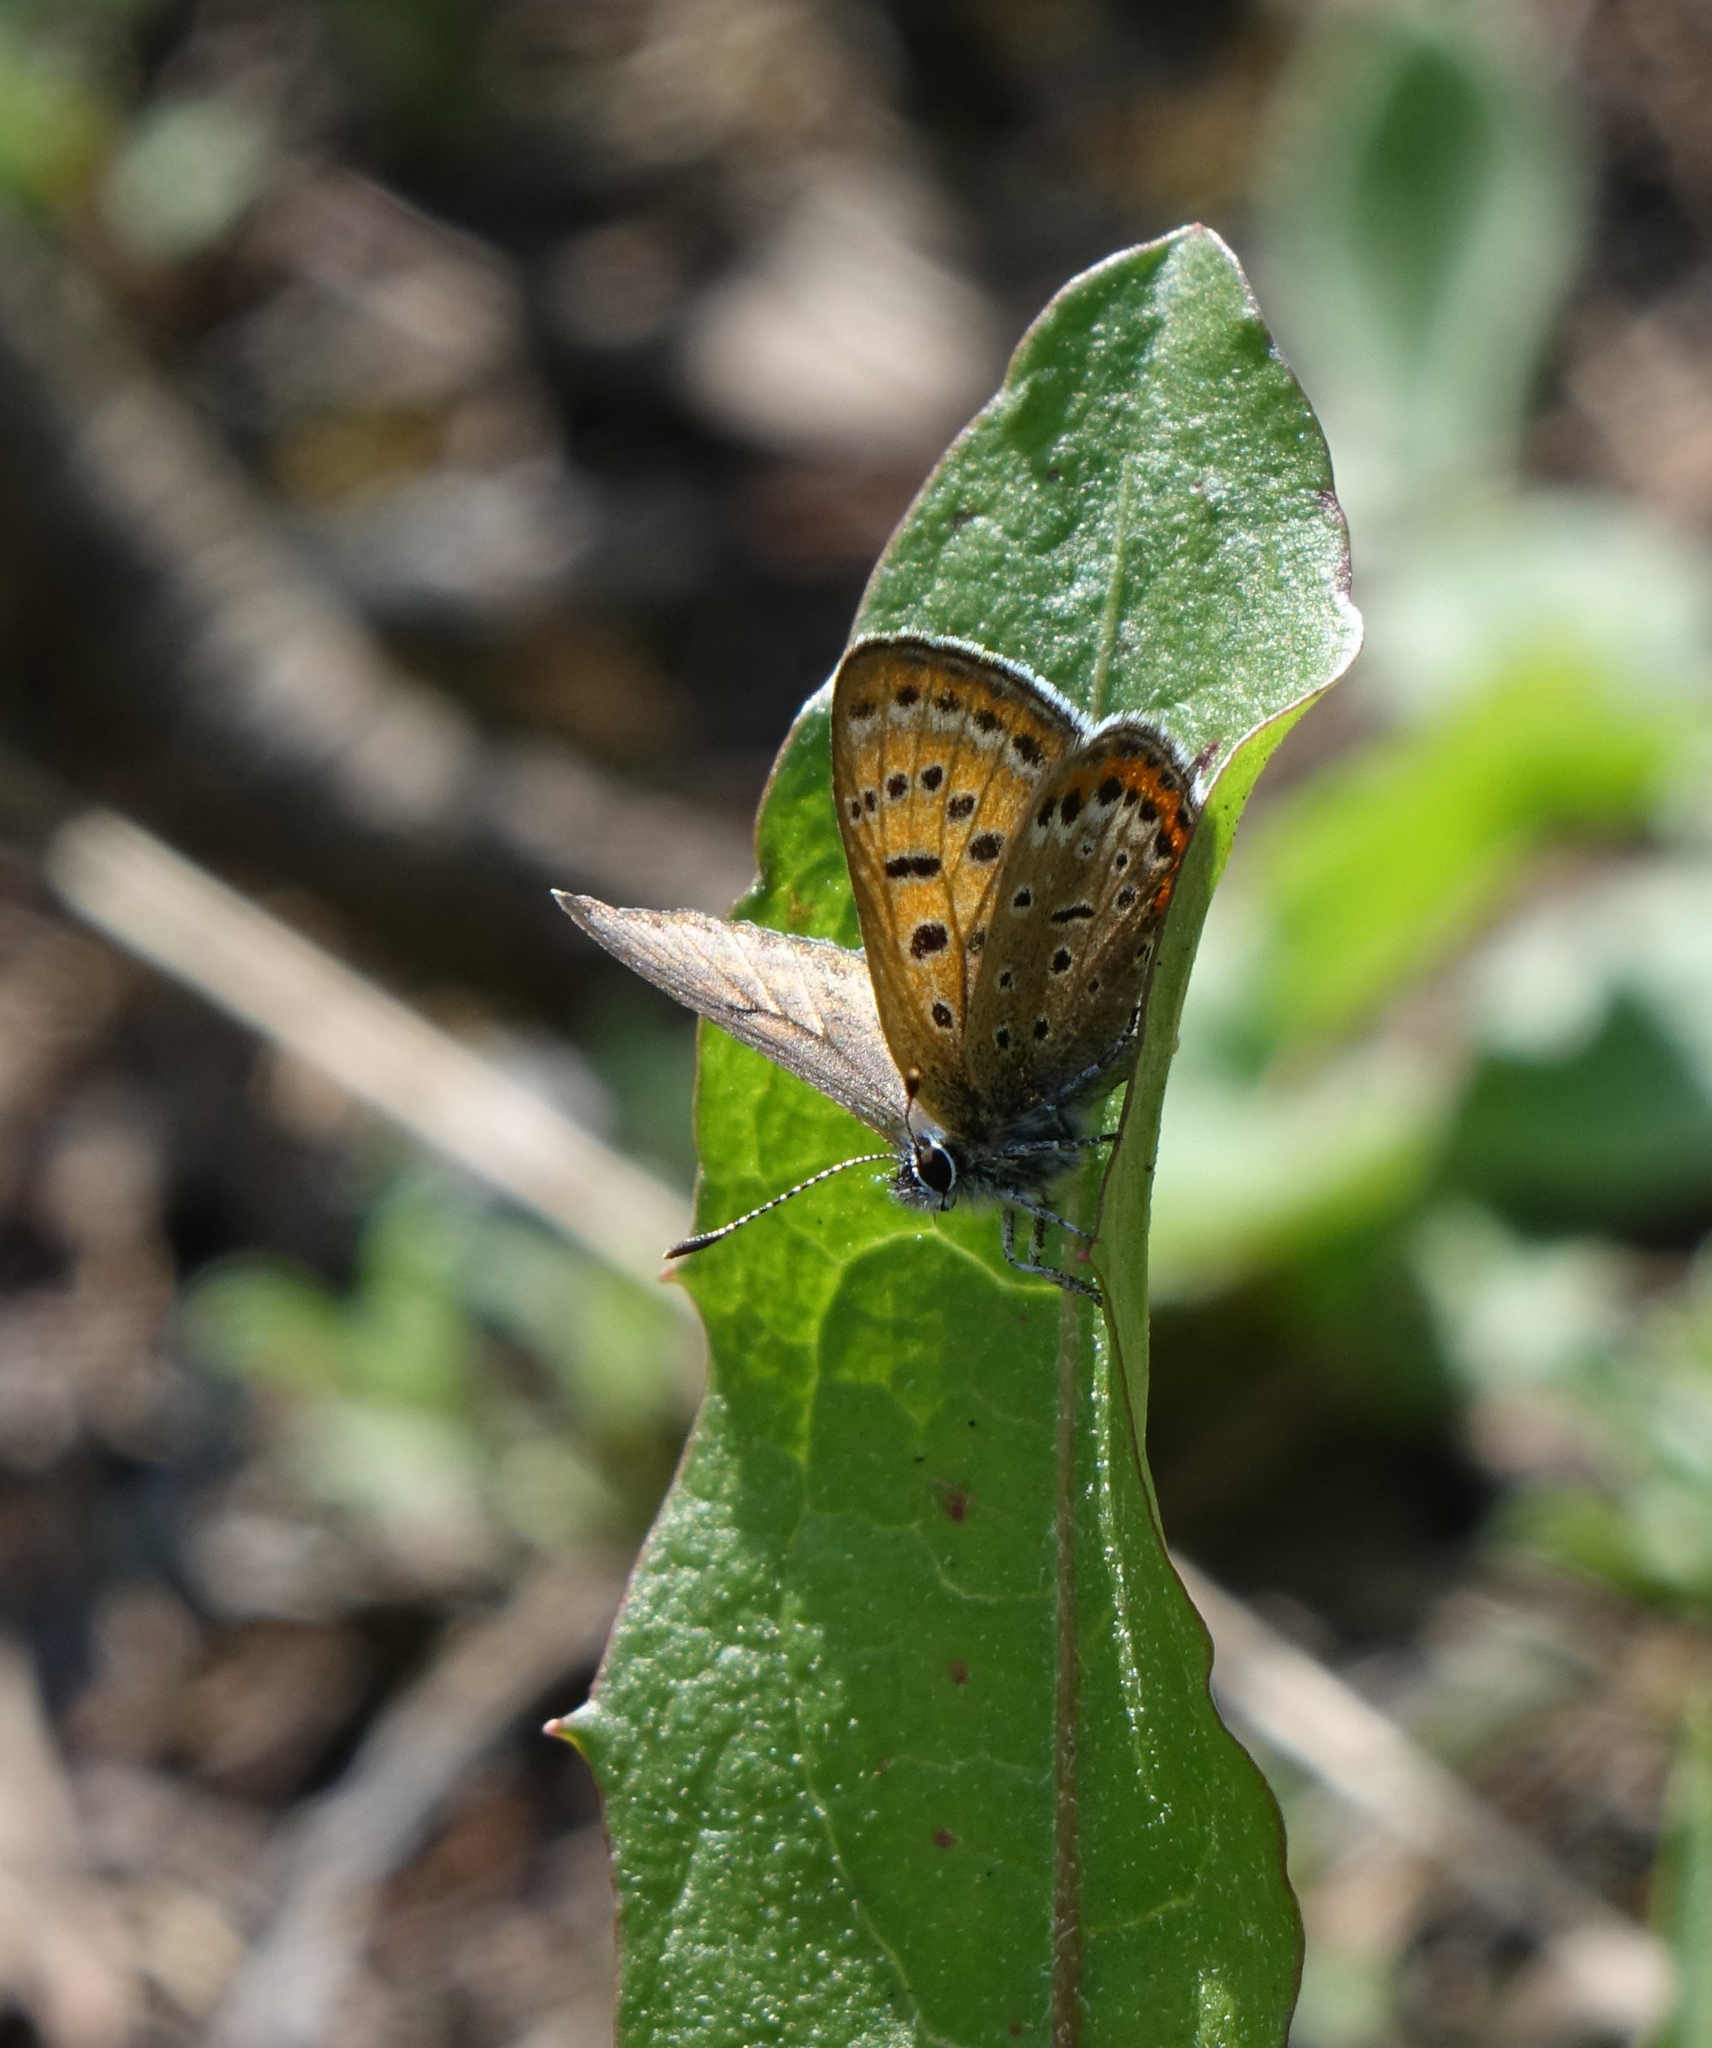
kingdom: Animalia
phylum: Arthropoda
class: Insecta
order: Lepidoptera
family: Lycaenidae
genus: Helleia
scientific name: Helleia helle
